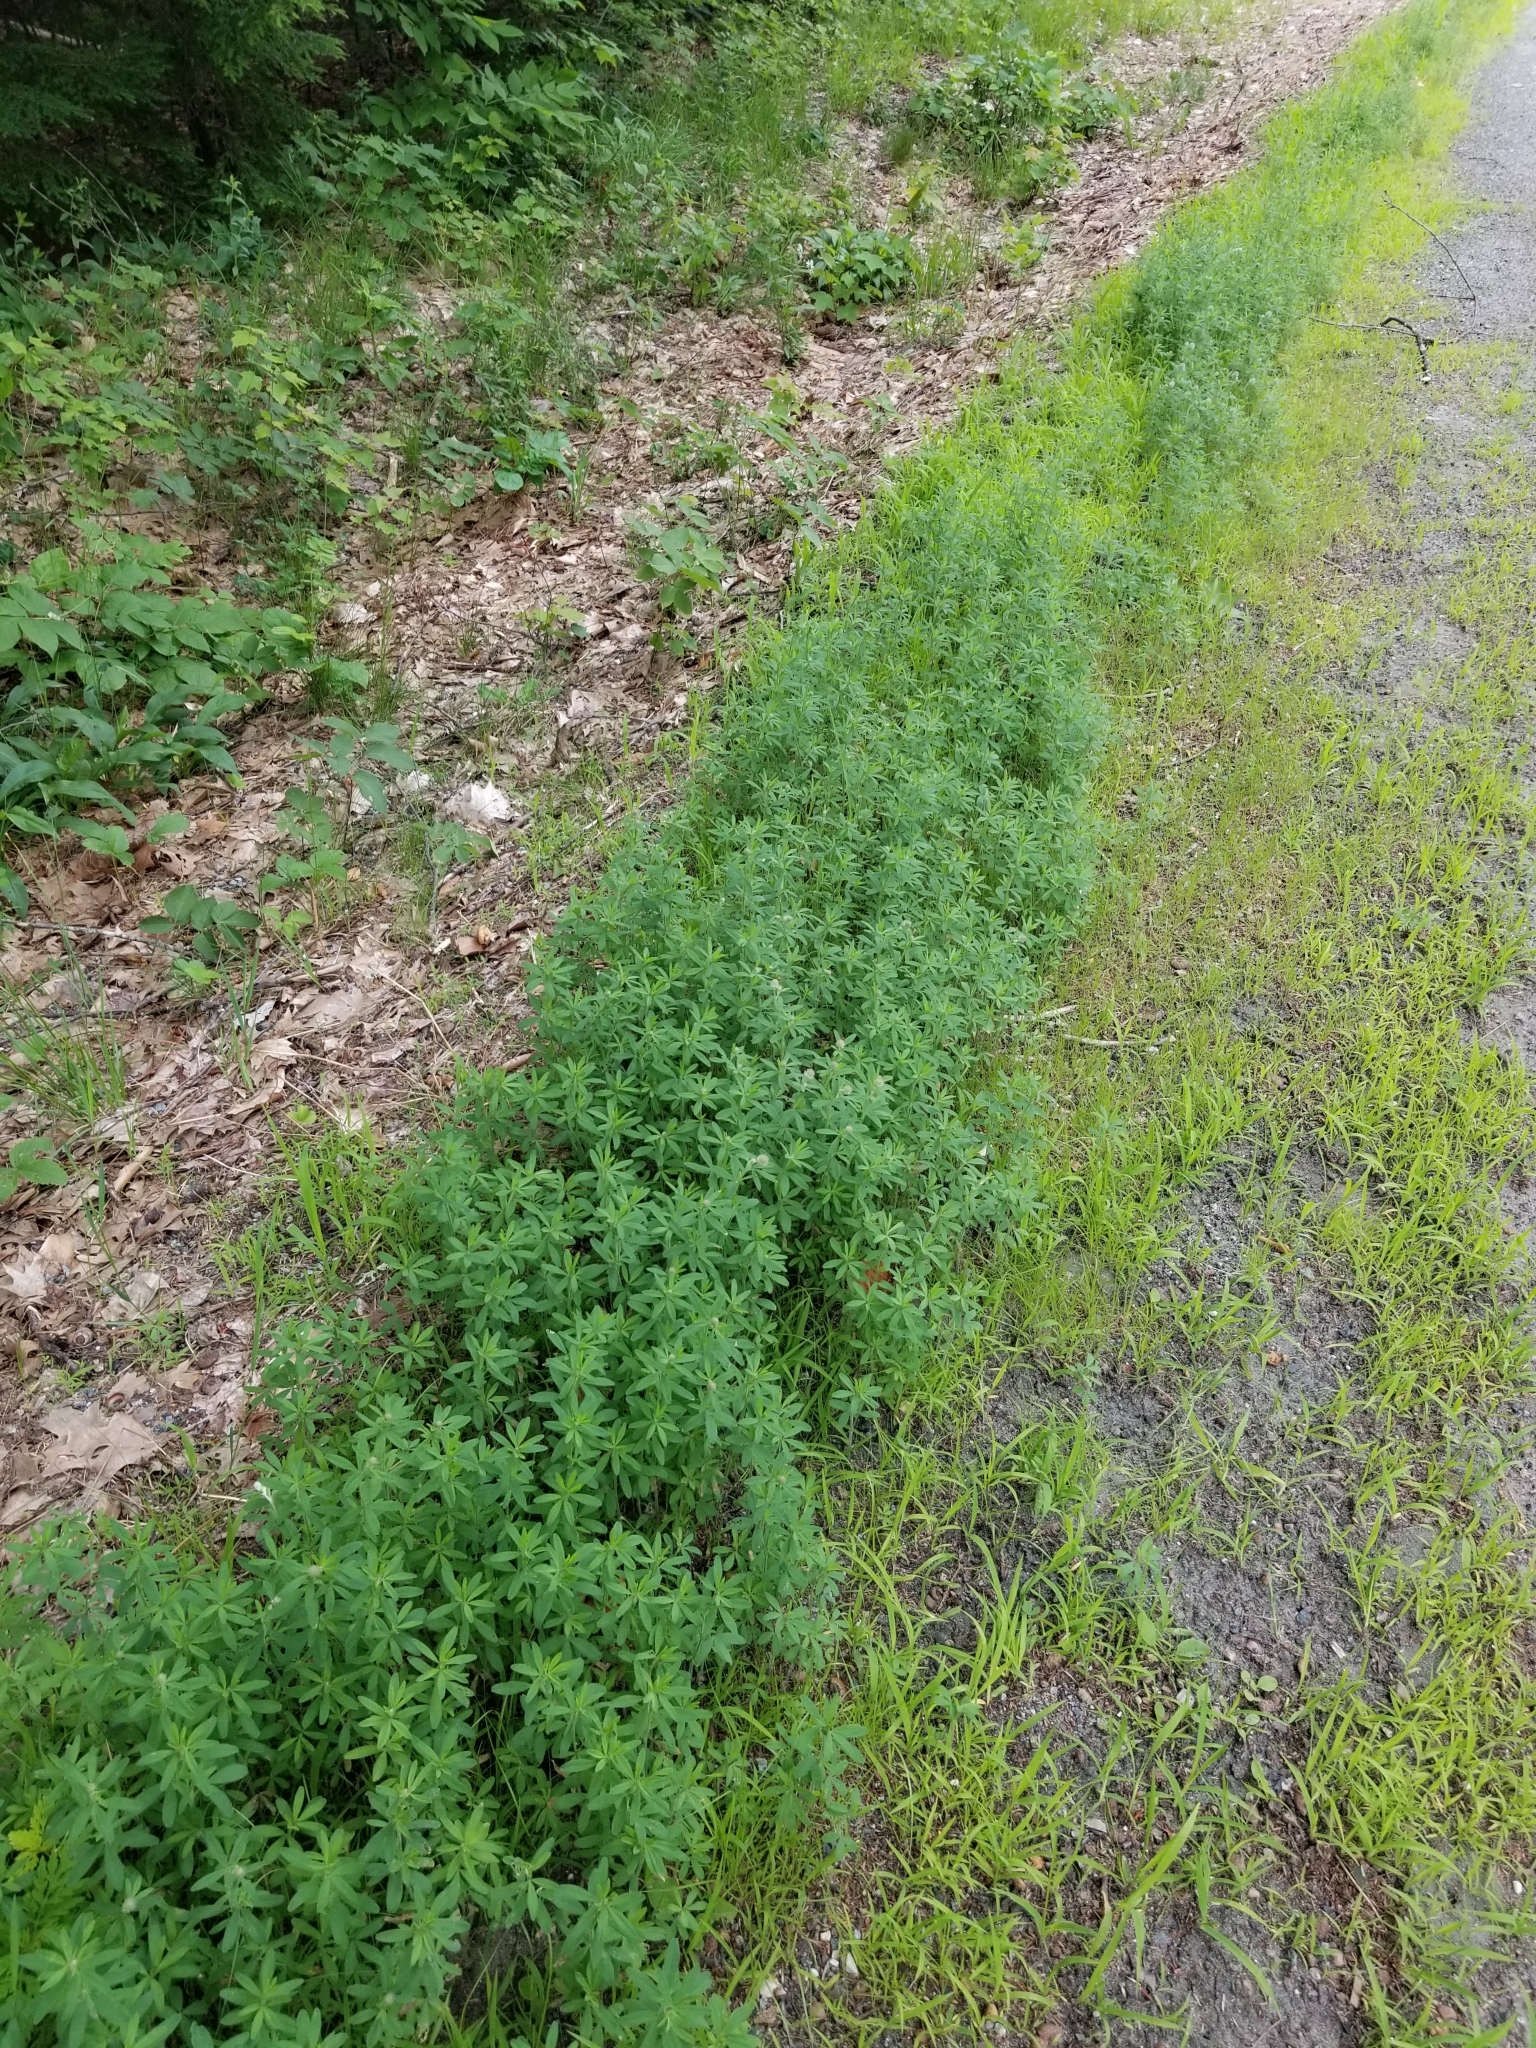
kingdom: Plantae
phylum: Tracheophyta
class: Magnoliopsida
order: Fabales
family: Fabaceae
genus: Trifolium
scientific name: Trifolium arvense
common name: Hare's-foot clover
